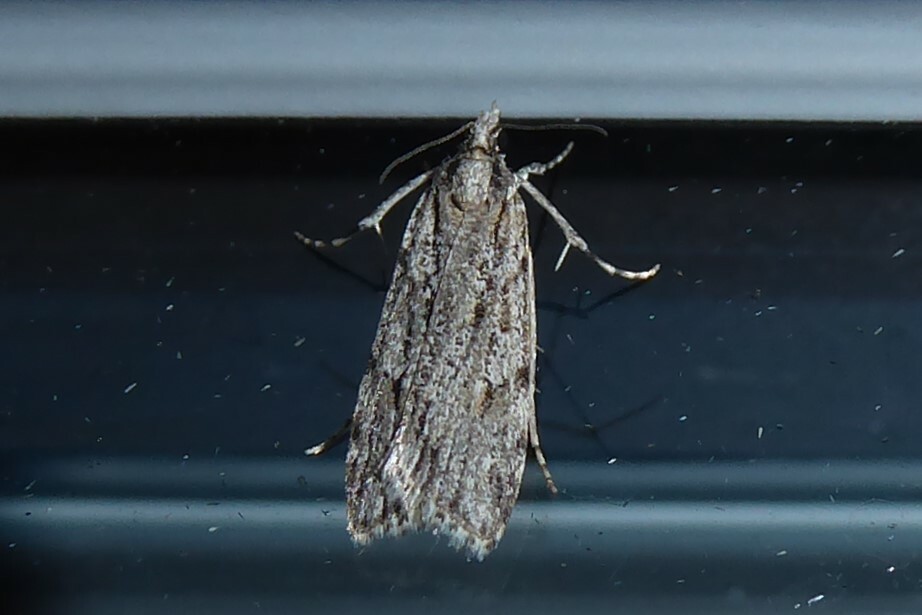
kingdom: Animalia
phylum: Arthropoda
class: Insecta
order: Lepidoptera
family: Crambidae
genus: Scoparia
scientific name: Scoparia chalicodes
